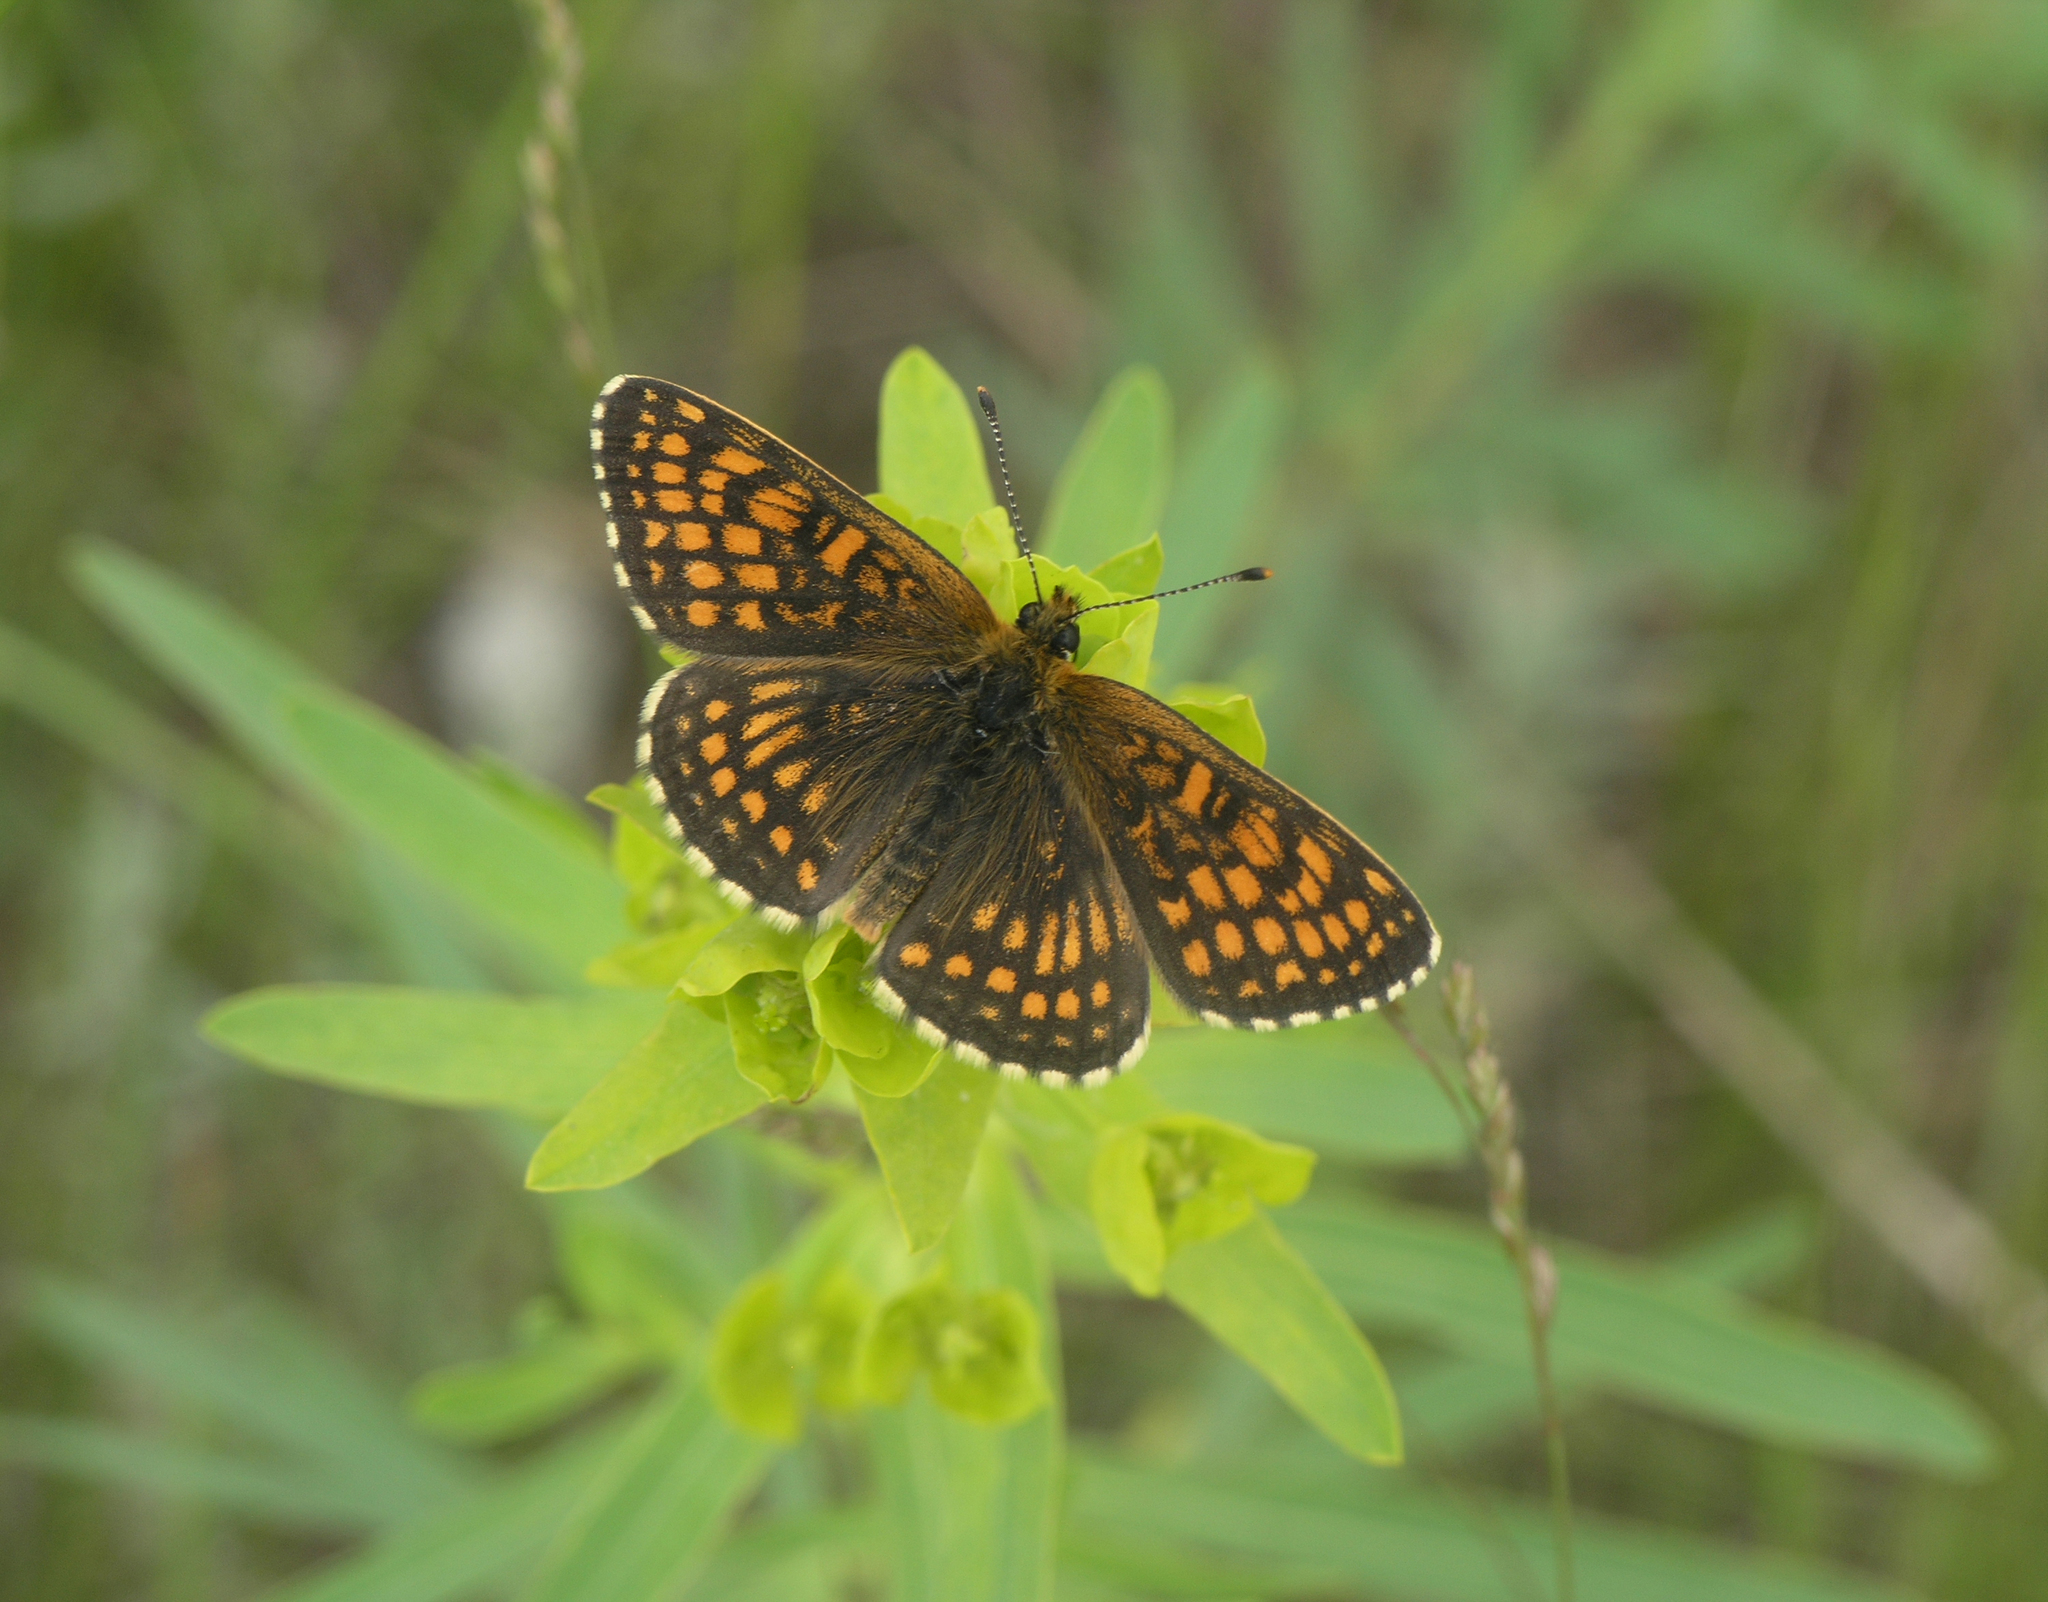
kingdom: Plantae
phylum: Tracheophyta
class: Magnoliopsida
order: Malpighiales
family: Euphorbiaceae
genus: Euphorbia
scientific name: Euphorbia virgata
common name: Leafy spurge
